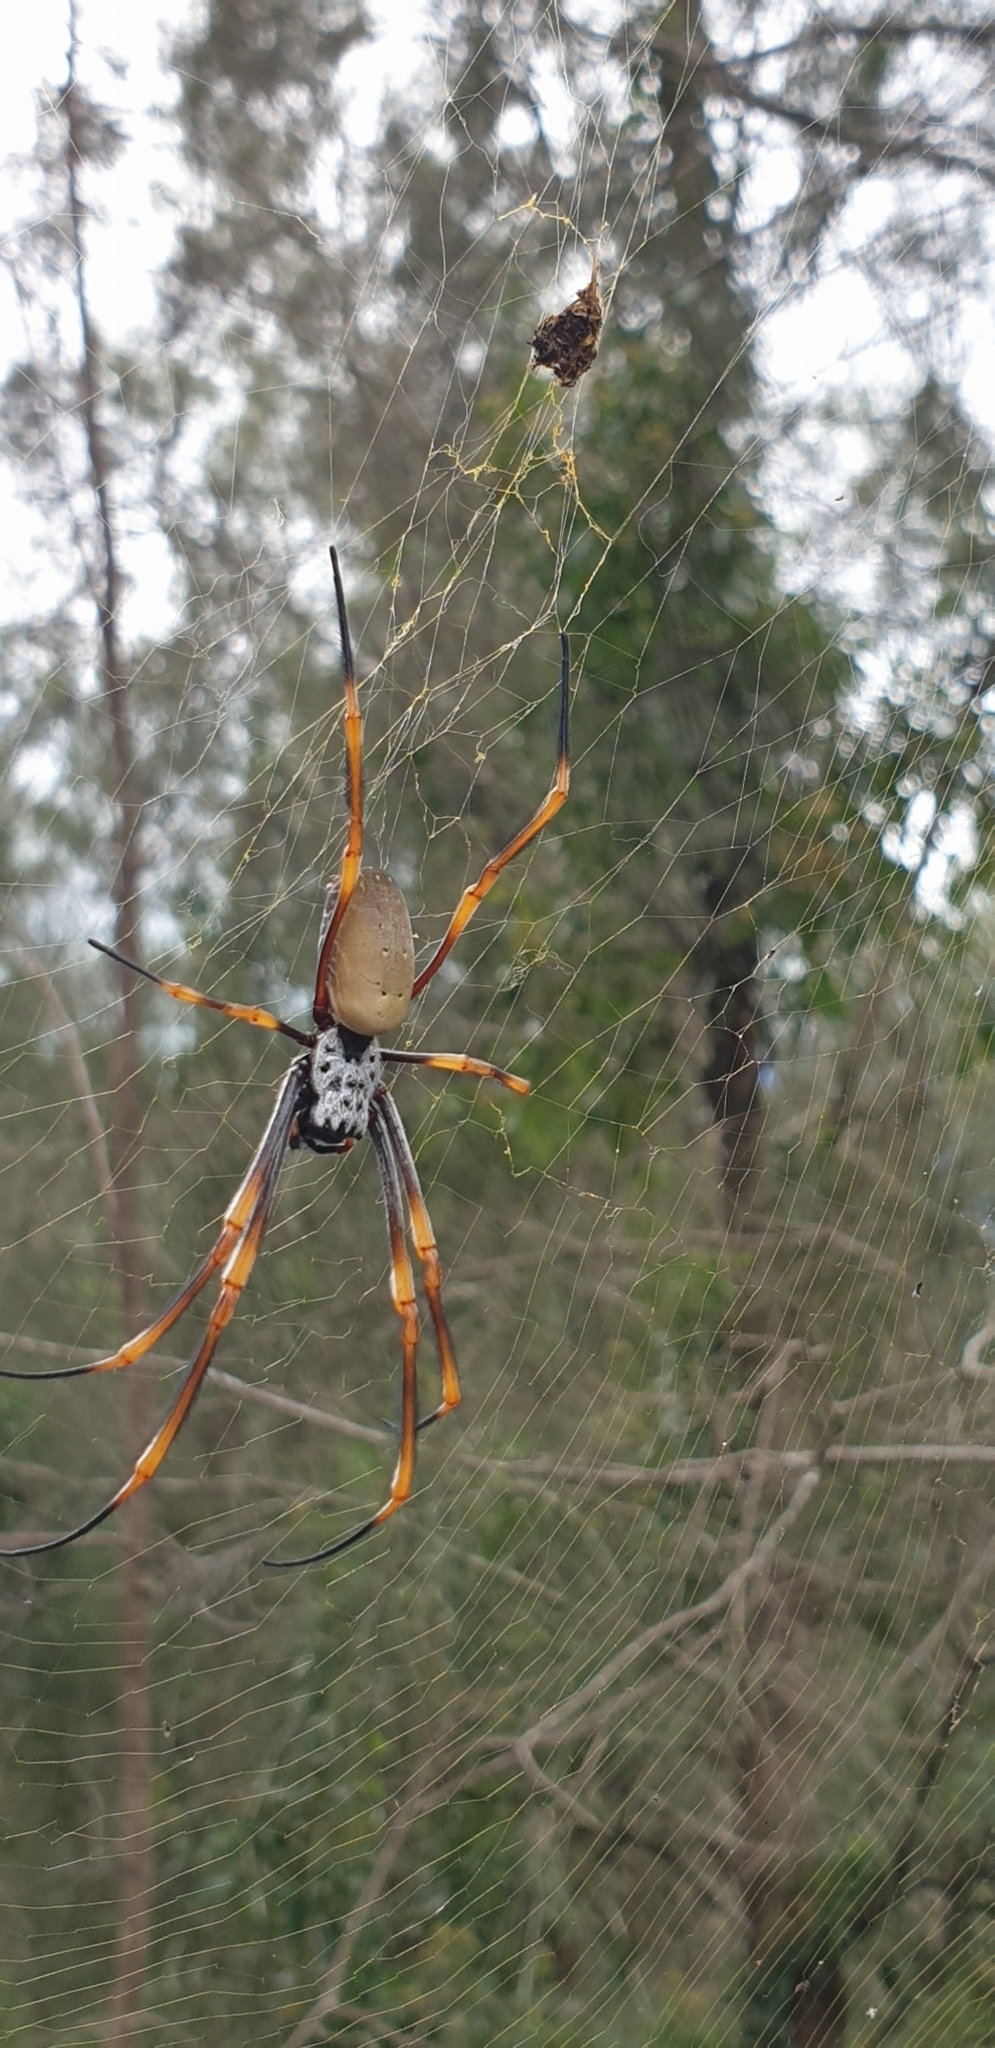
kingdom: Animalia
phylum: Arthropoda
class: Arachnida
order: Araneae
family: Araneidae
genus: Trichonephila
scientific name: Trichonephila plumipes
